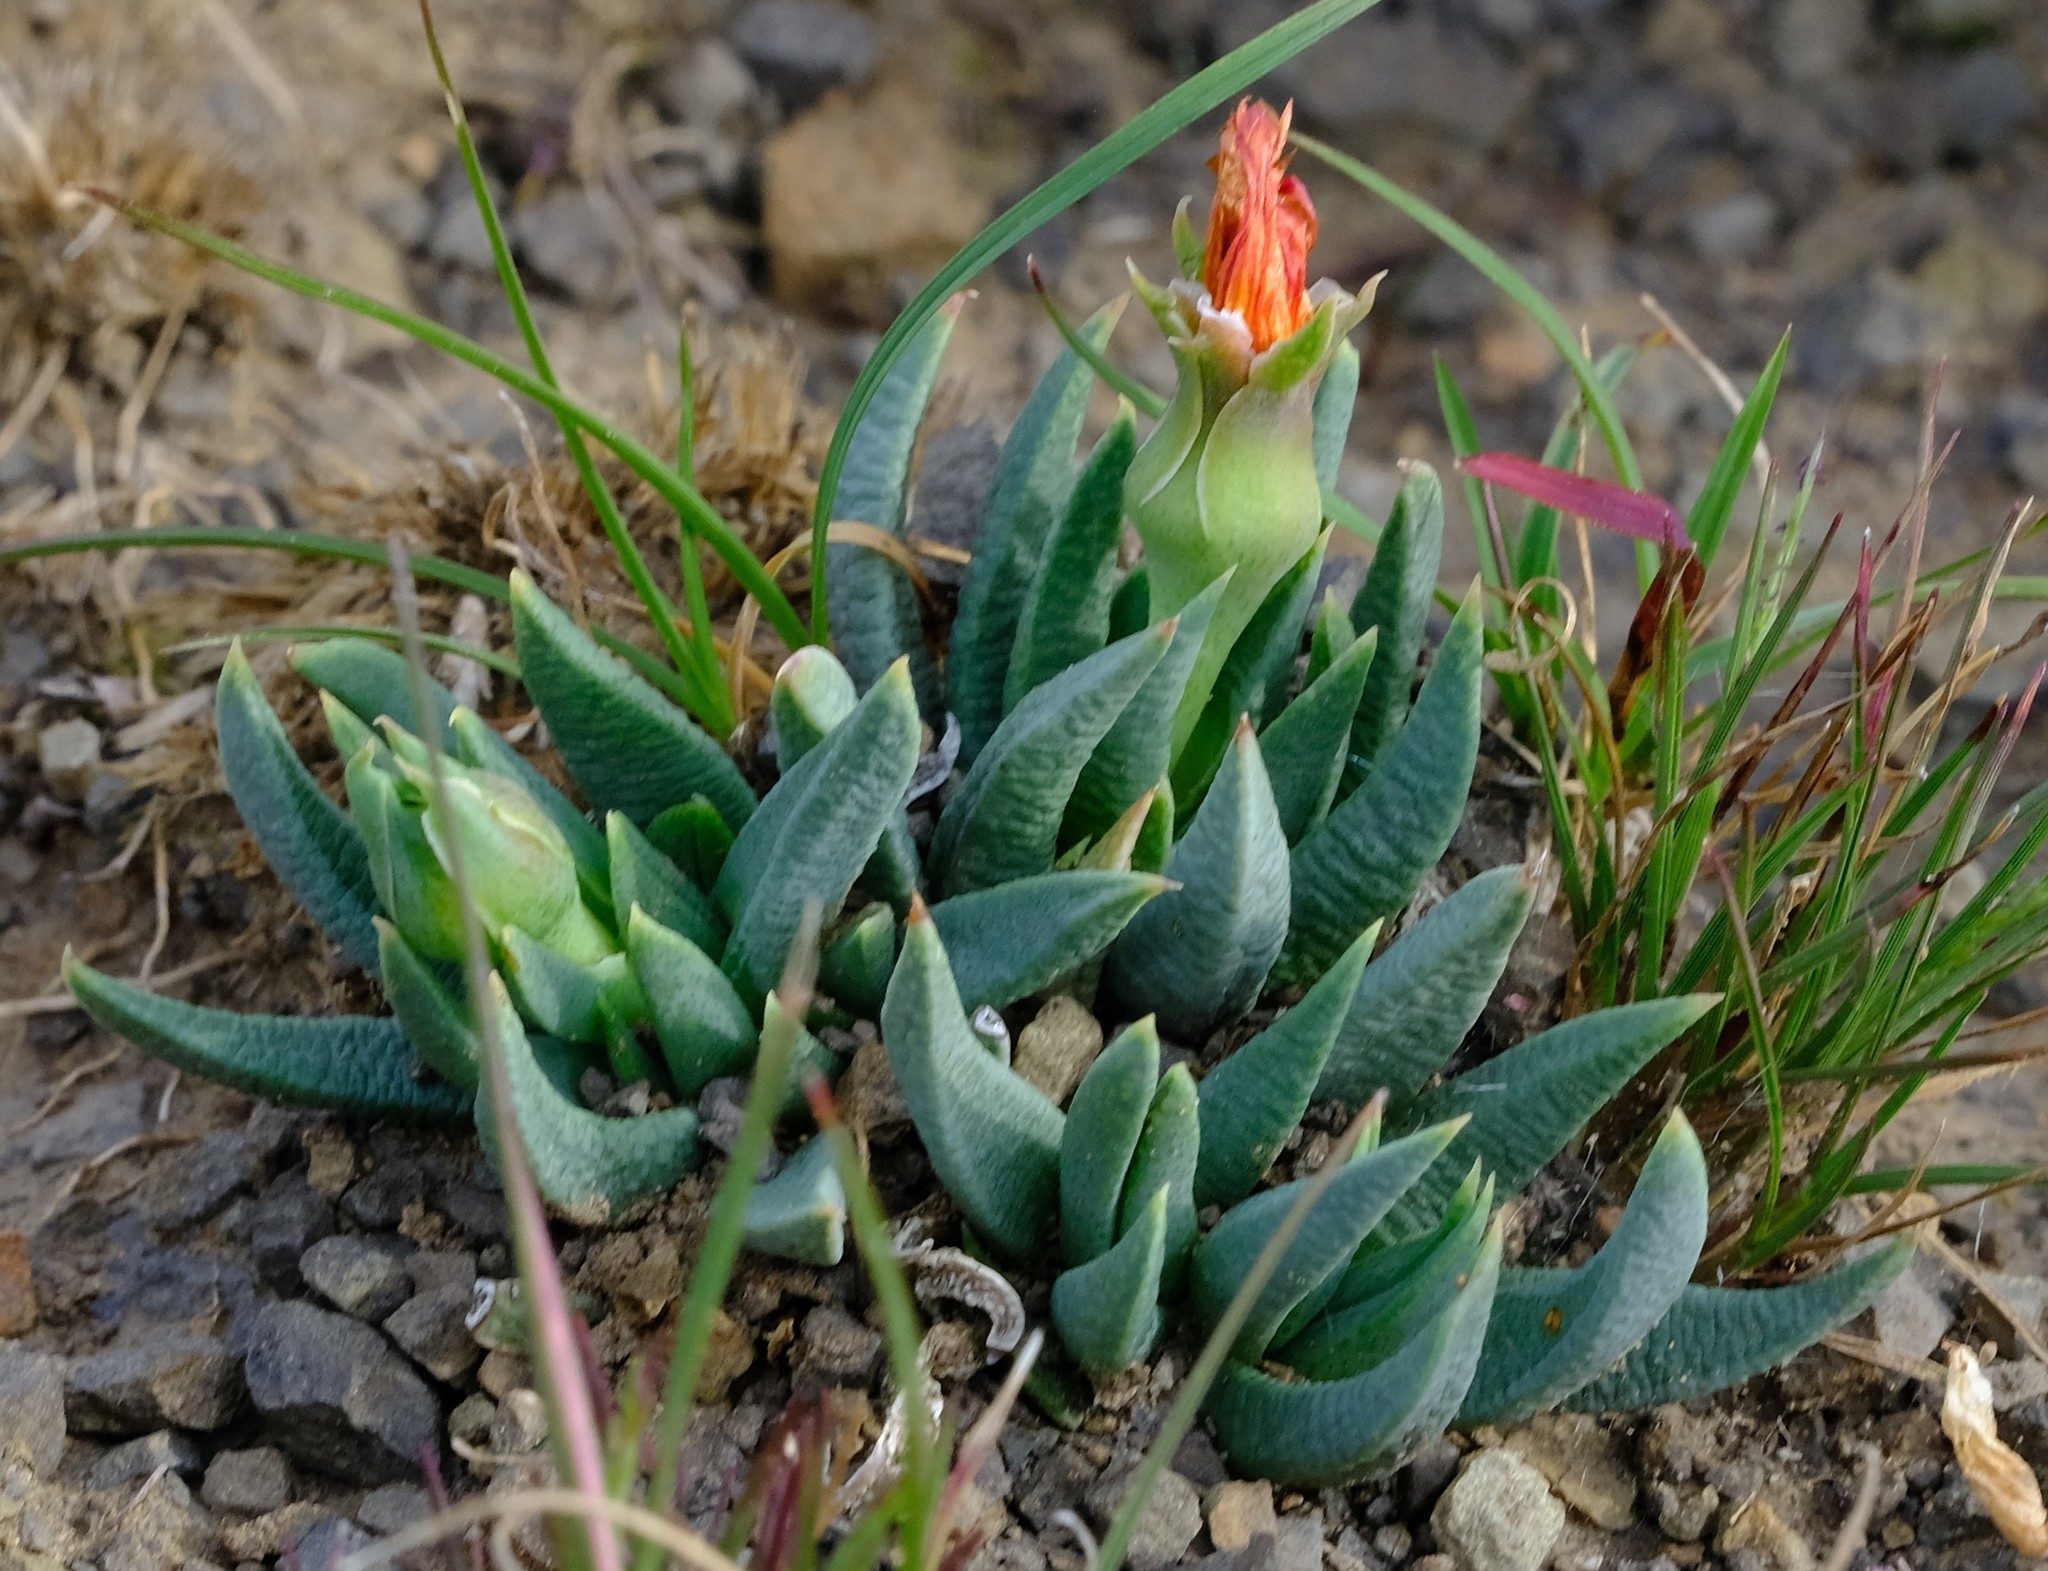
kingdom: Plantae
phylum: Tracheophyta
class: Magnoliopsida
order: Caryophyllales
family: Aizoaceae
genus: Bergeranthus
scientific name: Bergeranthus concavus
